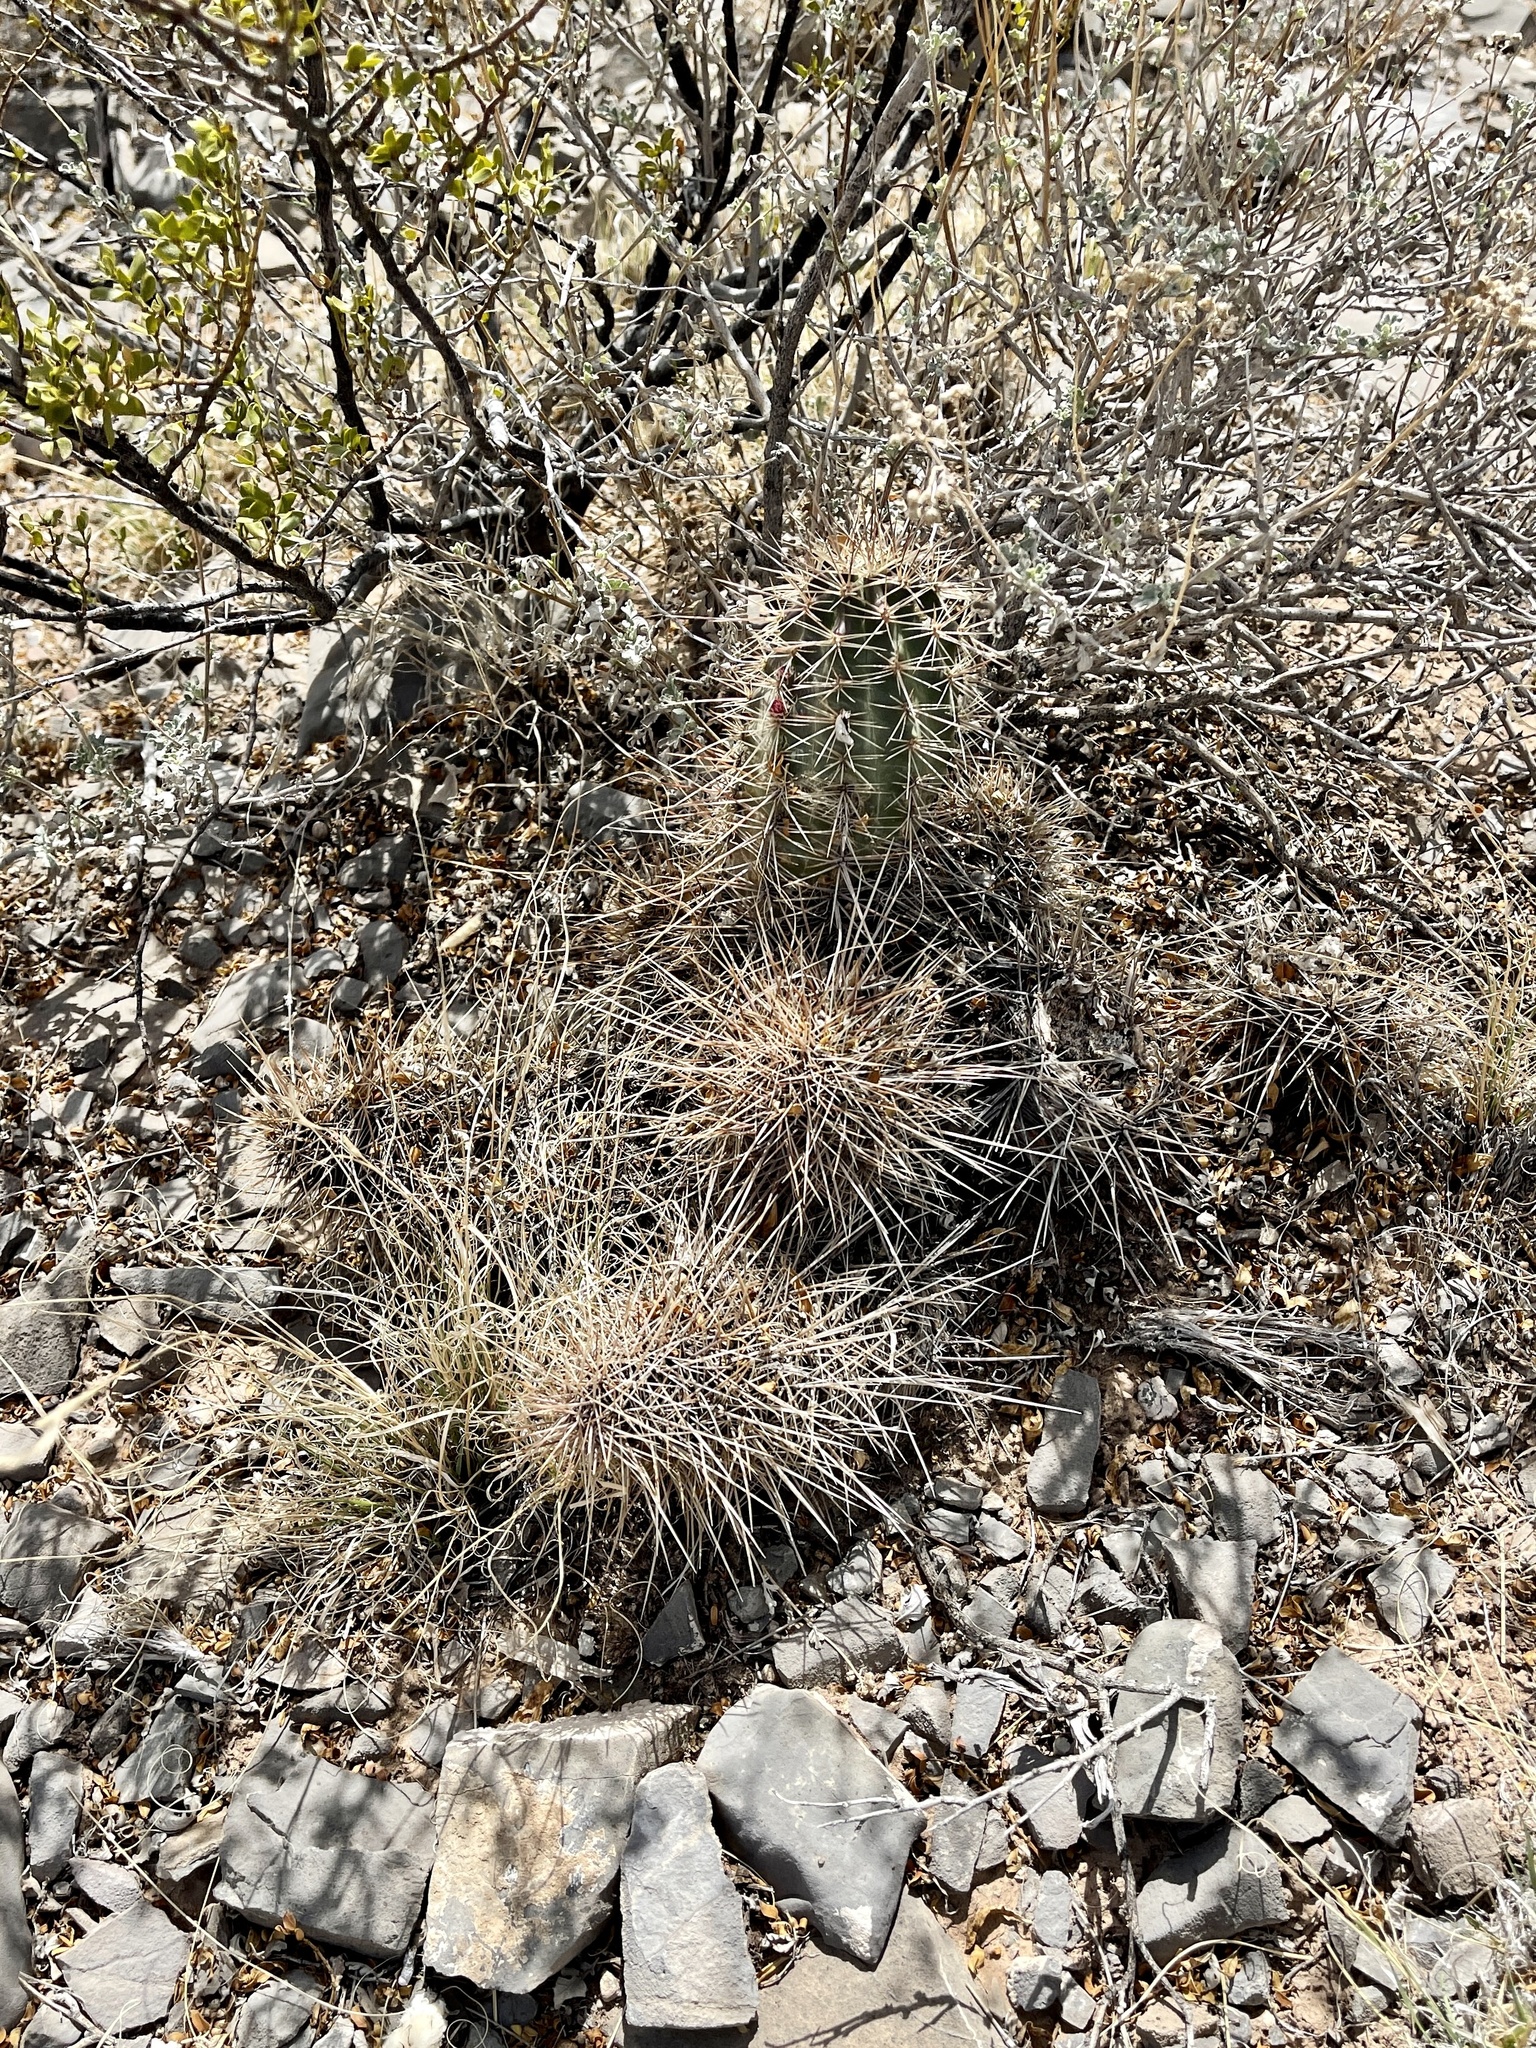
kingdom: Plantae
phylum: Tracheophyta
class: Magnoliopsida
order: Caryophyllales
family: Cactaceae
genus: Echinocereus
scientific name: Echinocereus coccineus
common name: Scarlet hedgehog cactus
